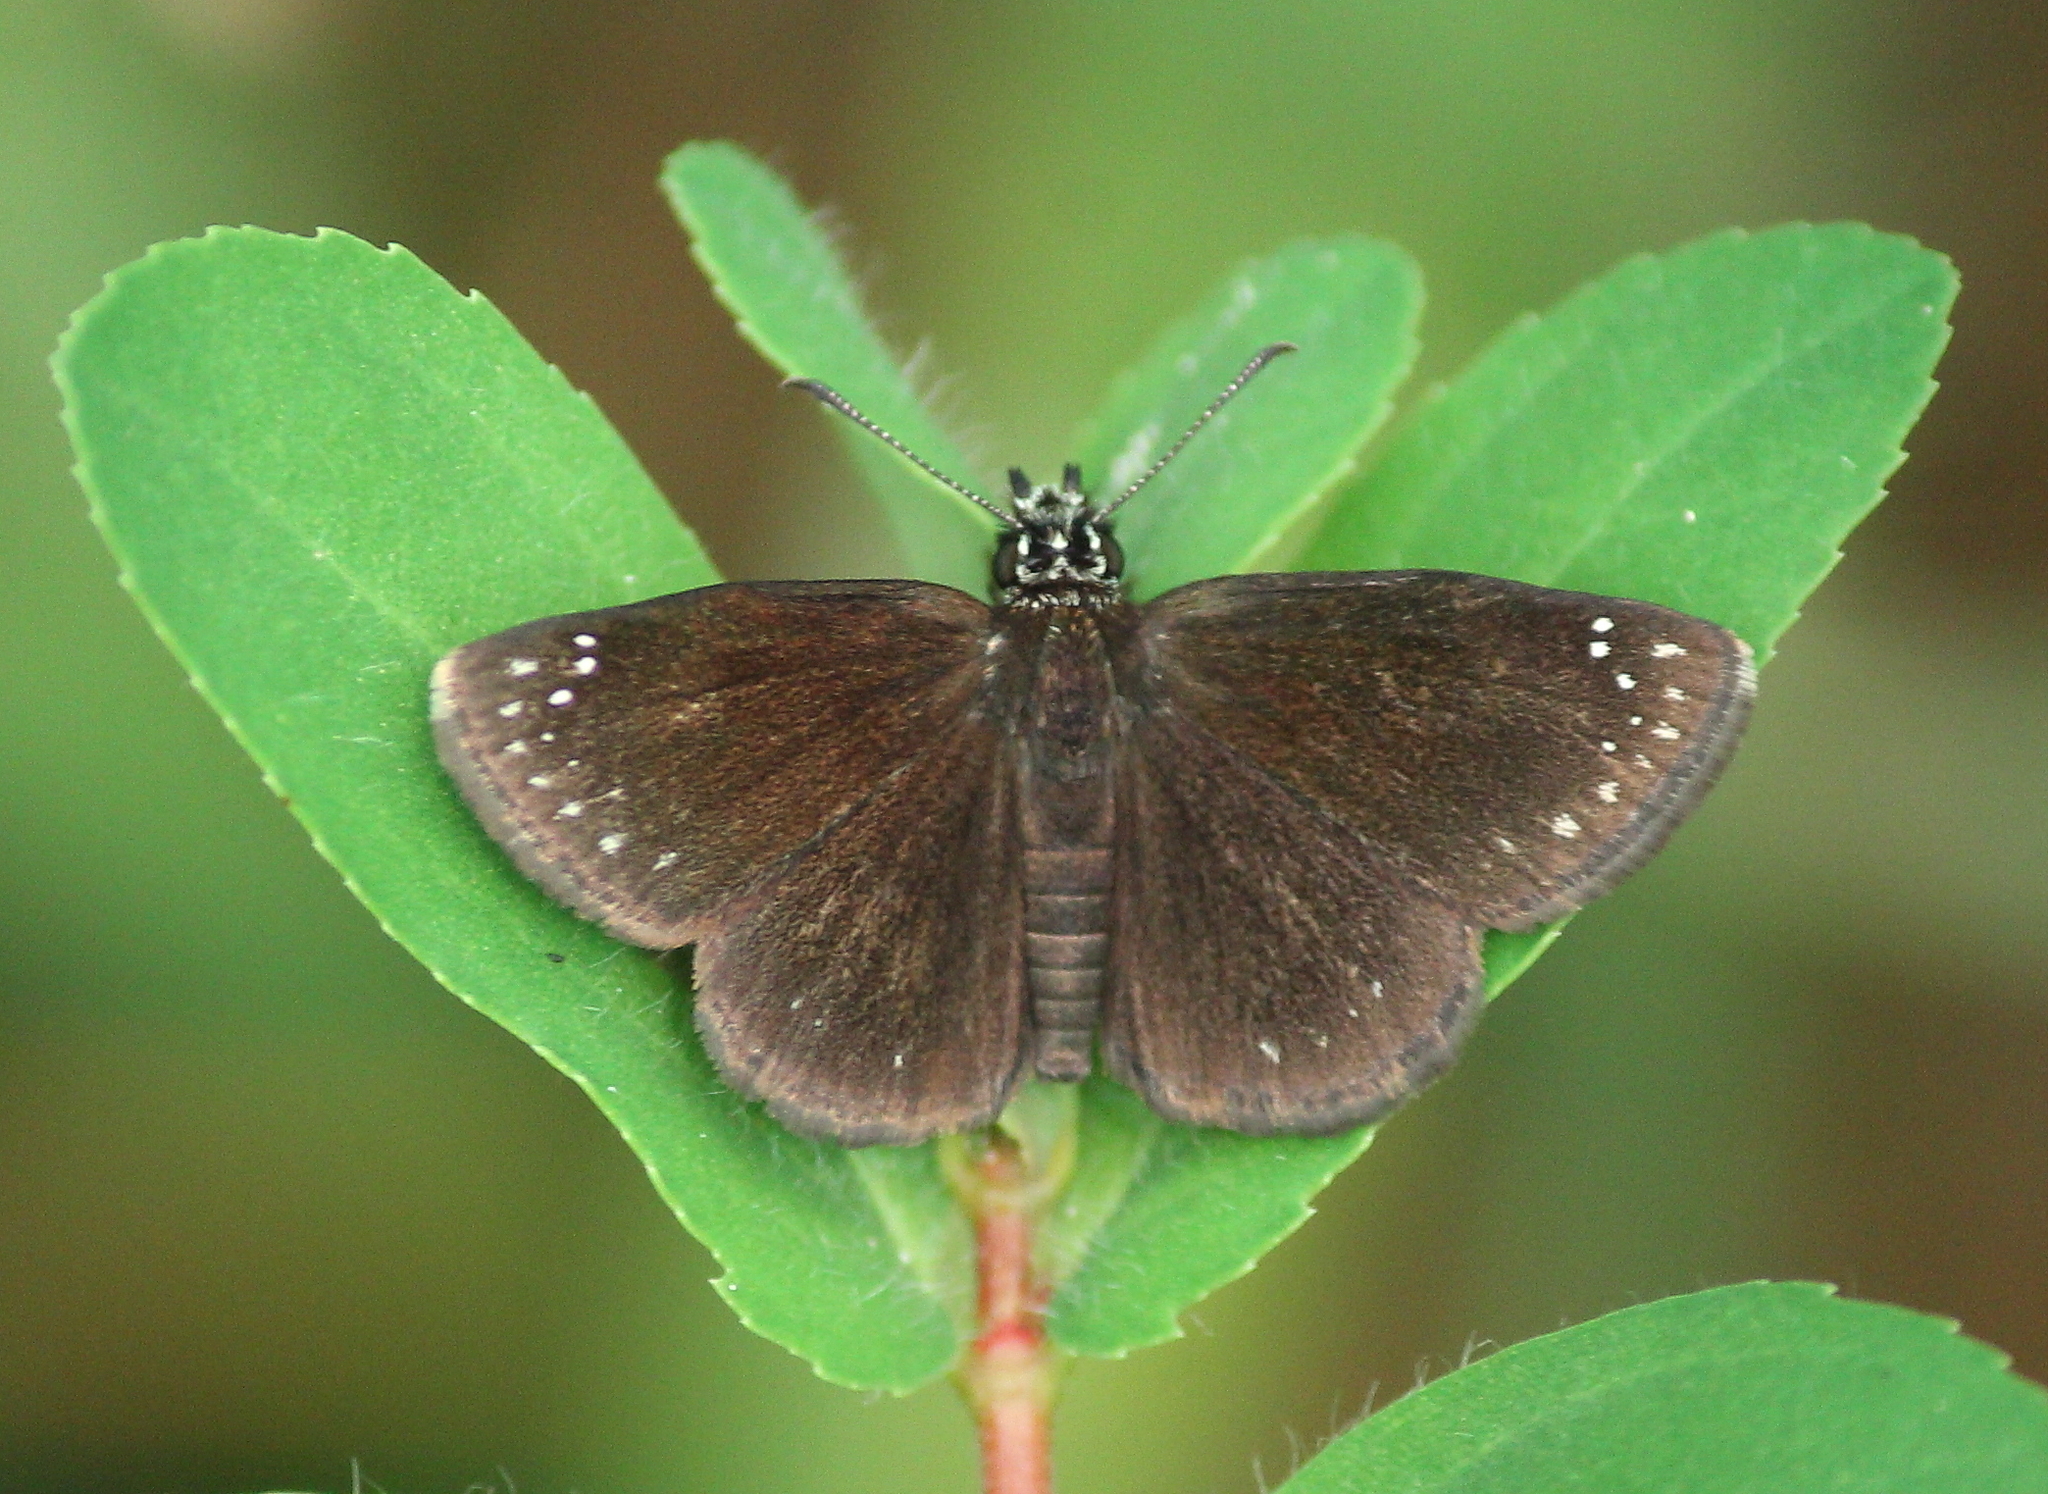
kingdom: Animalia
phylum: Arthropoda
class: Insecta
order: Lepidoptera
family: Hesperiidae
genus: Pholisora
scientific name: Pholisora catullus
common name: Common sootywing
